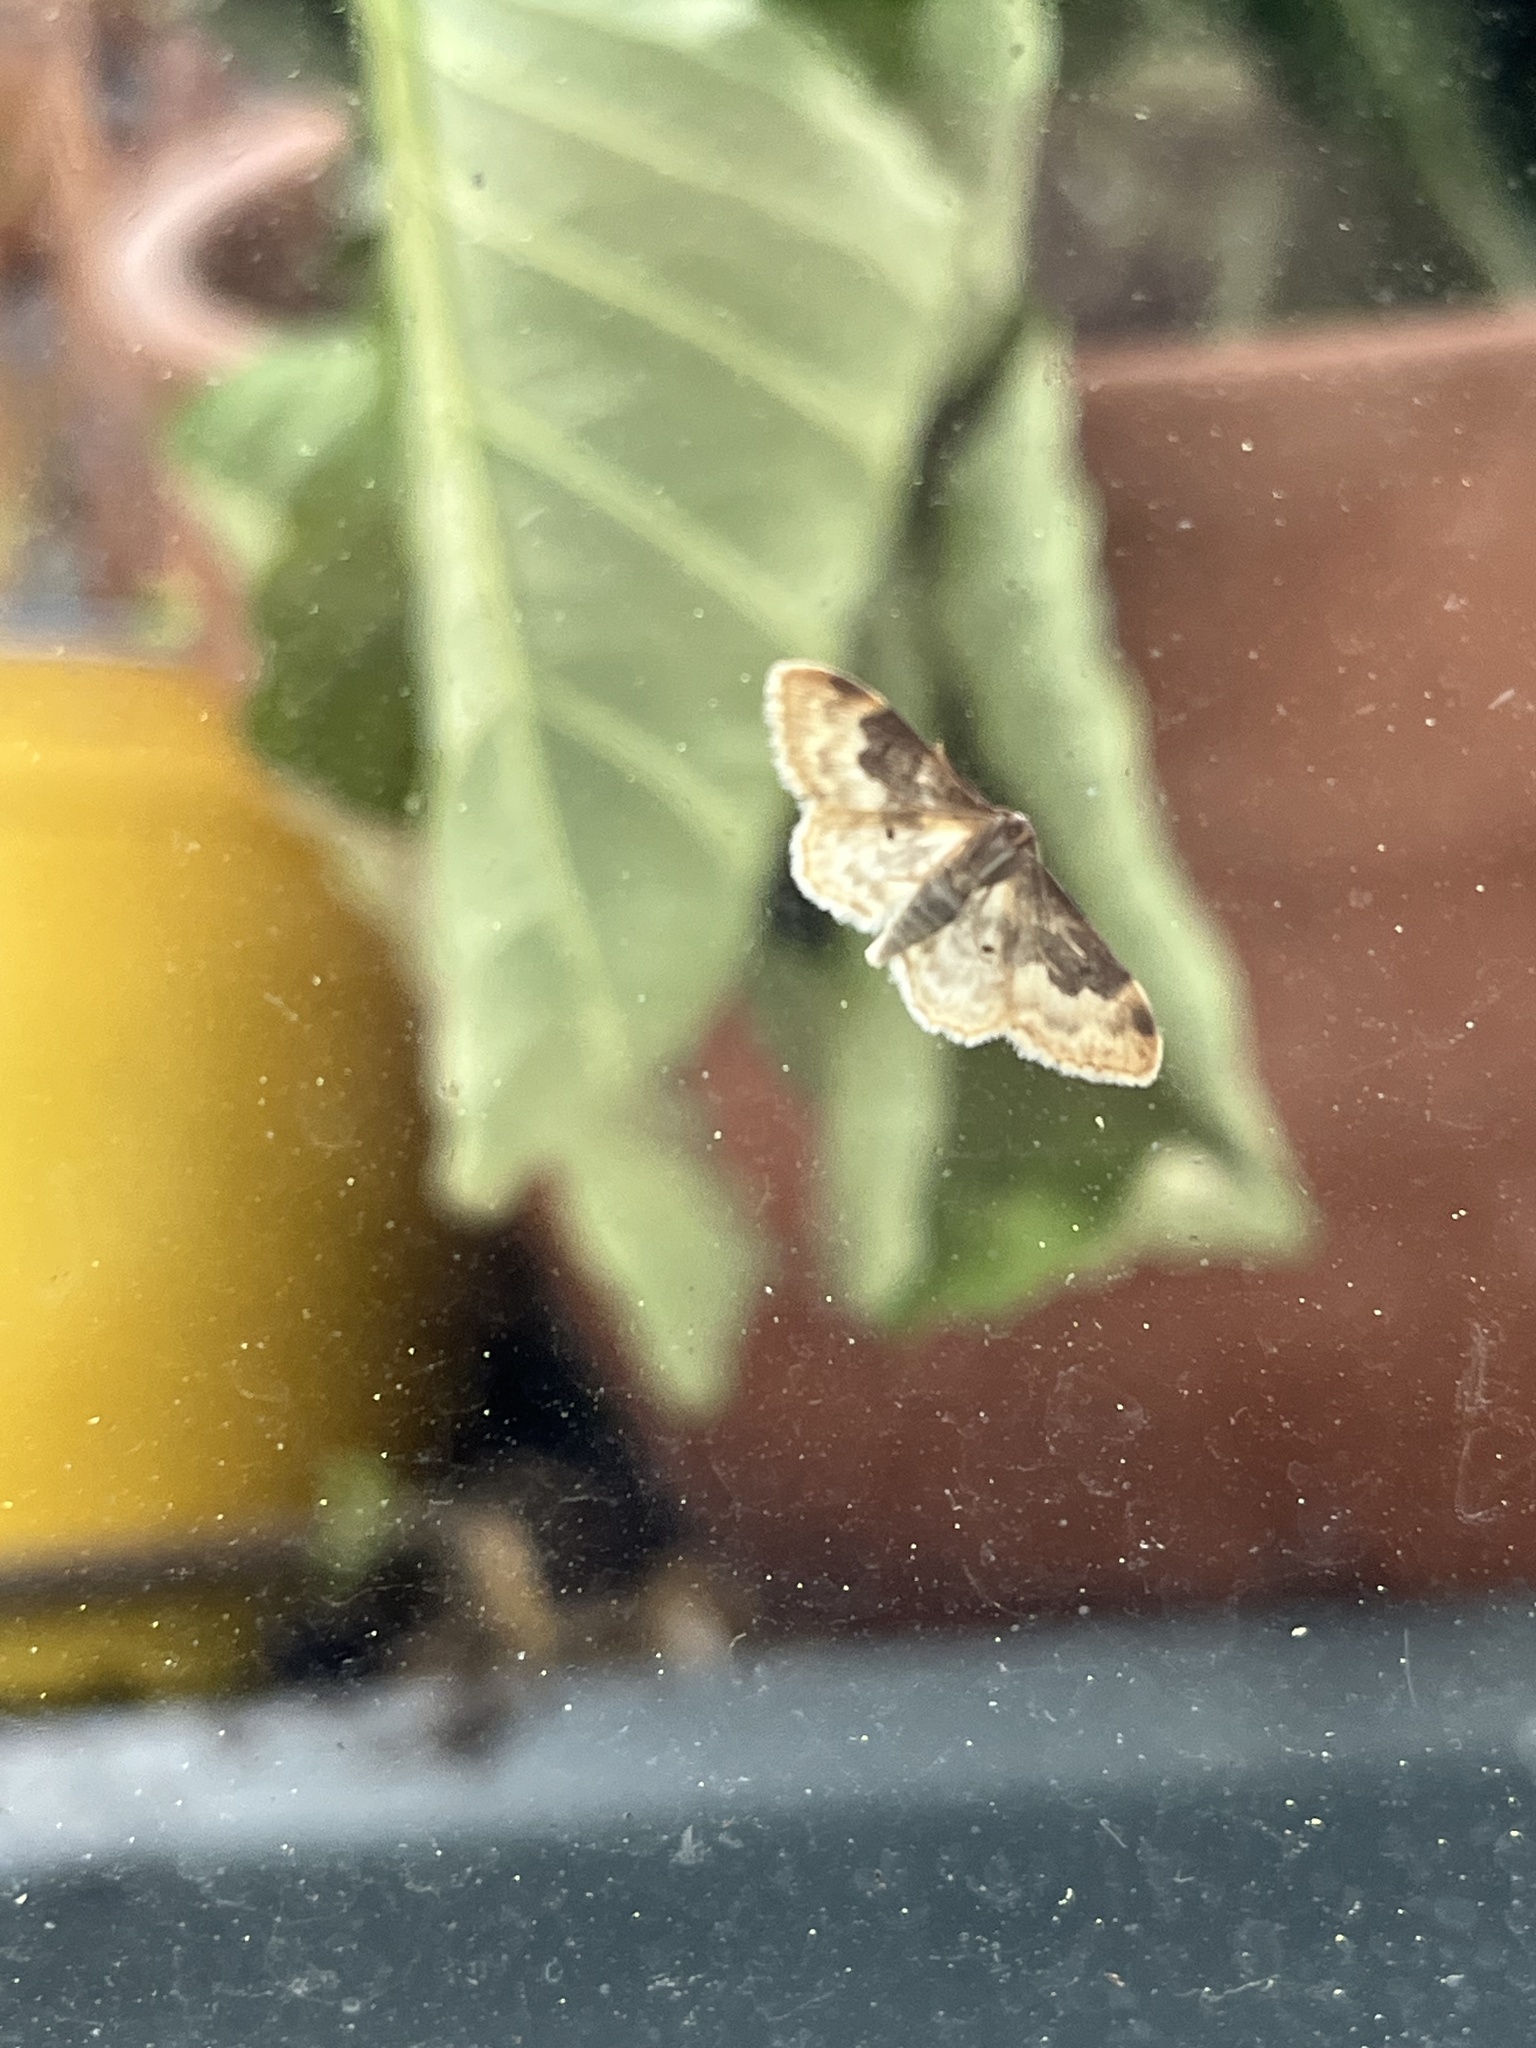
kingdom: Animalia
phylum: Arthropoda
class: Insecta
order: Lepidoptera
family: Geometridae
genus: Idaea
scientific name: Idaea rusticata
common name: Least carpet
